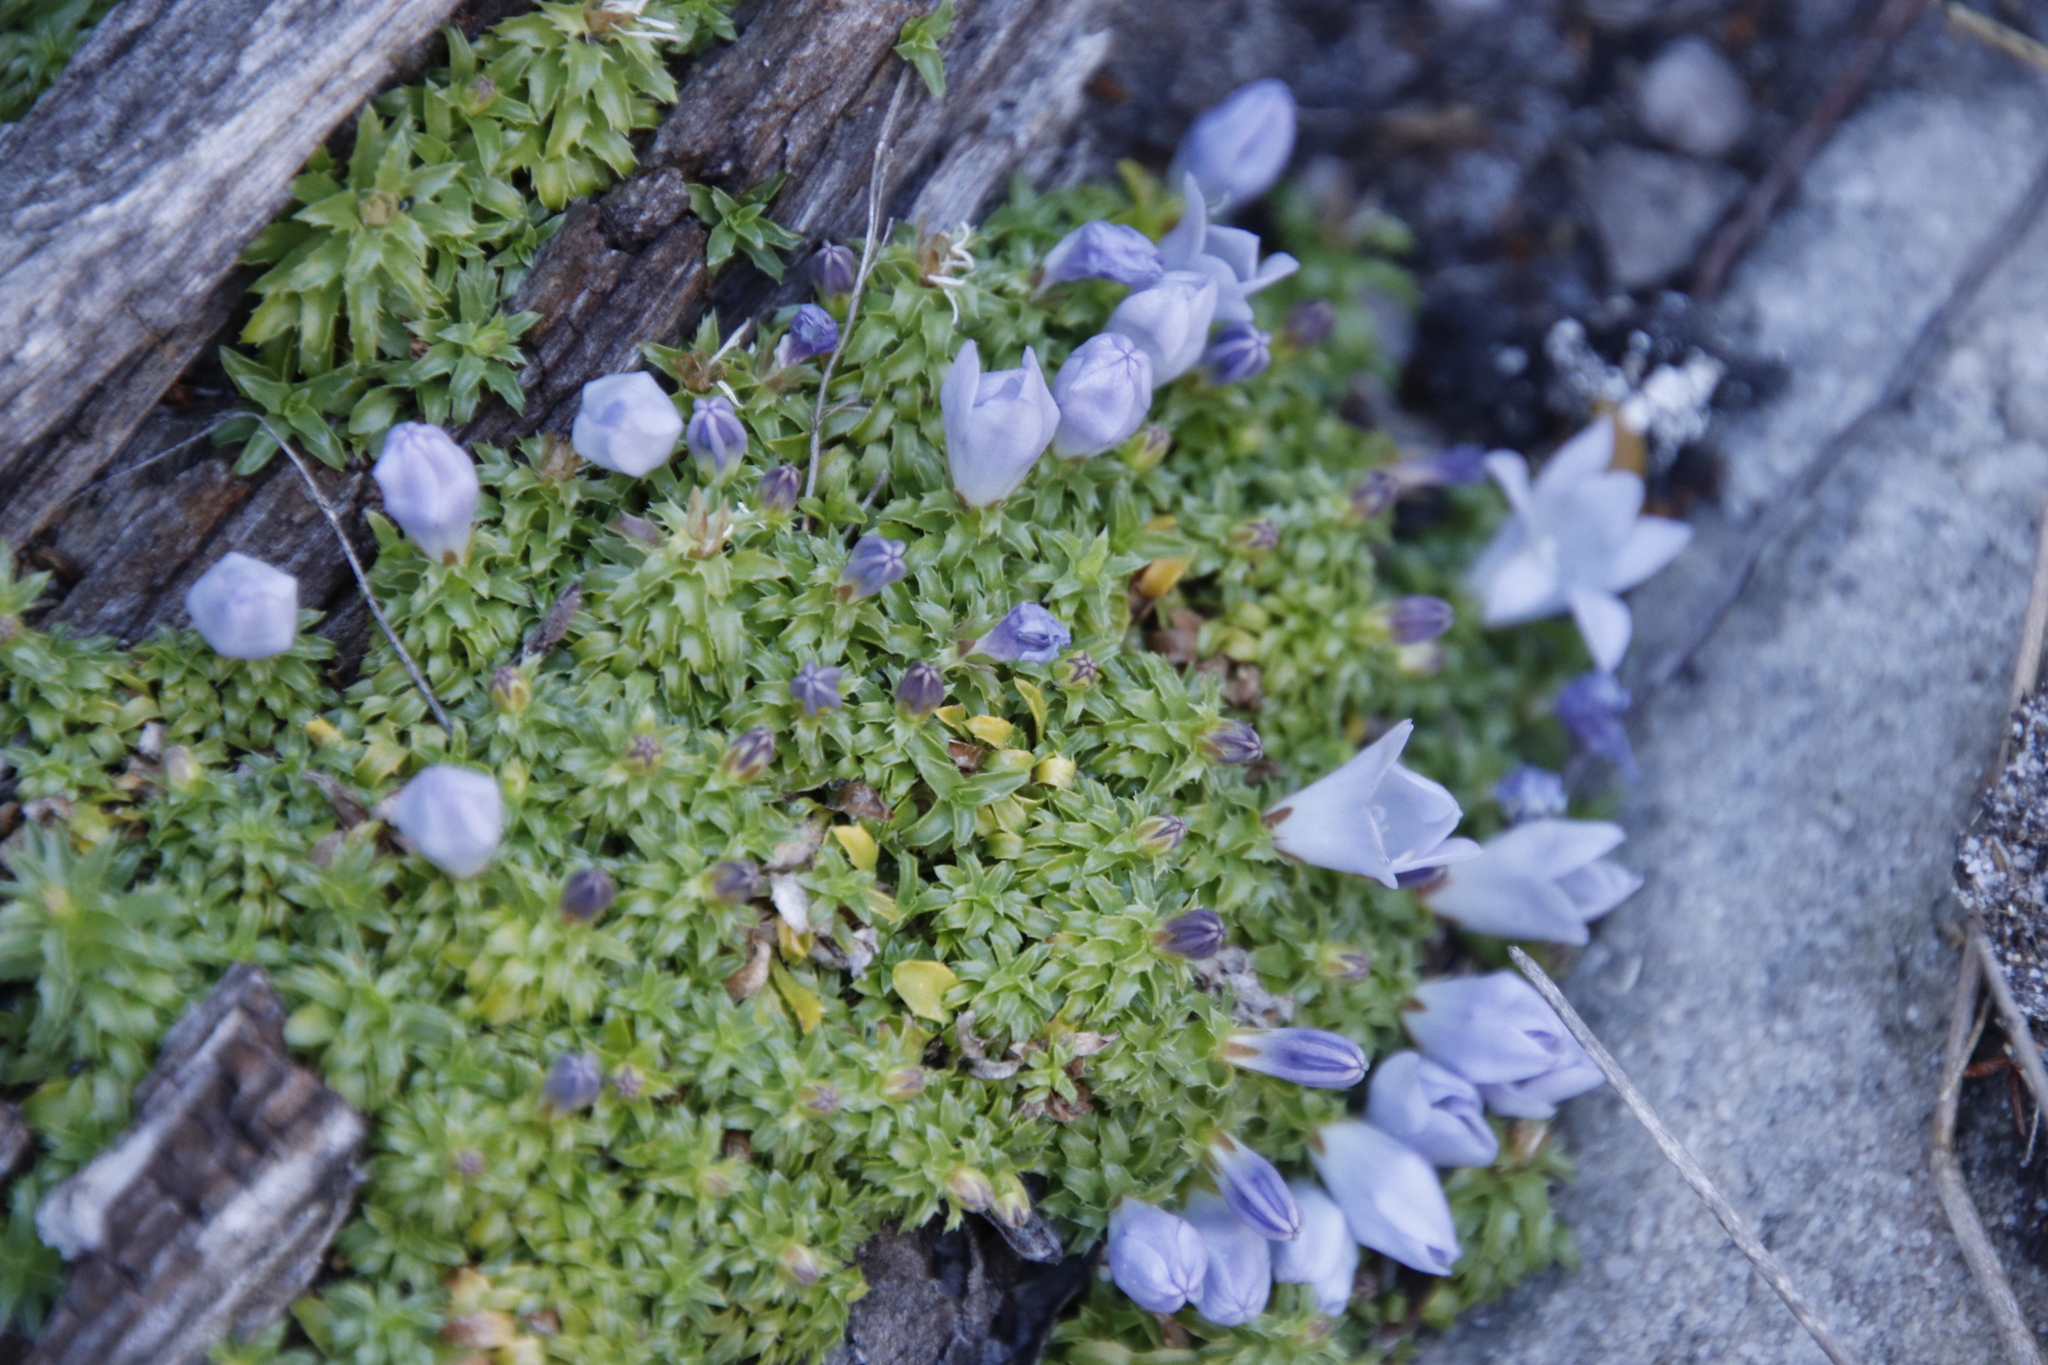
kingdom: Plantae
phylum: Tracheophyta
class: Magnoliopsida
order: Asterales
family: Campanulaceae
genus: Roella
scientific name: Roella muscosa
